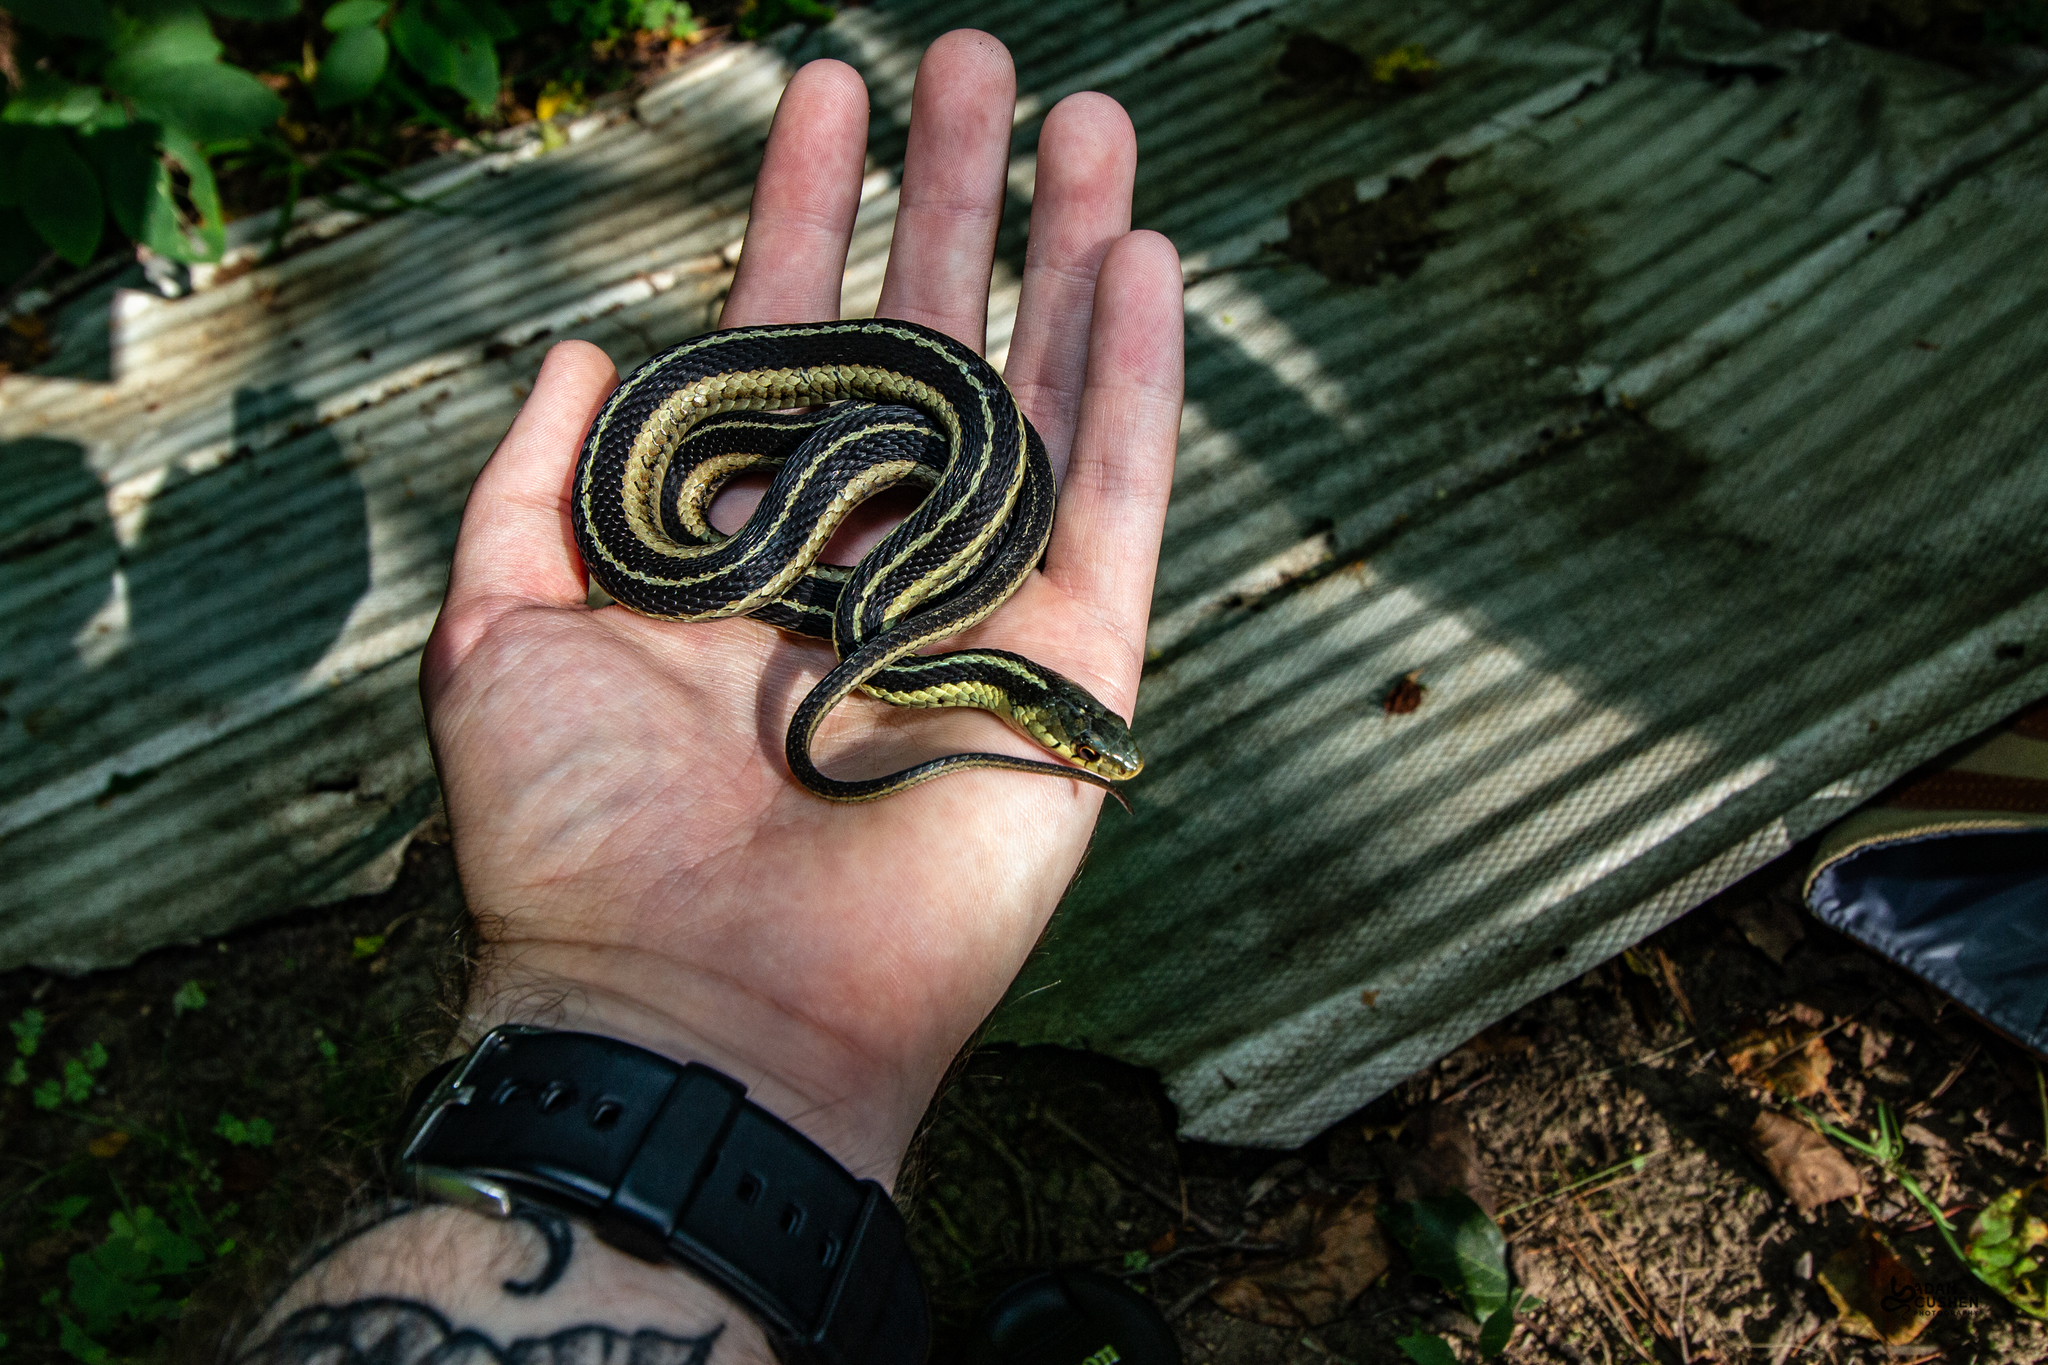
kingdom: Animalia
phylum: Chordata
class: Squamata
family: Colubridae
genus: Thamnophis
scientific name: Thamnophis sirtalis
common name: Common garter snake
